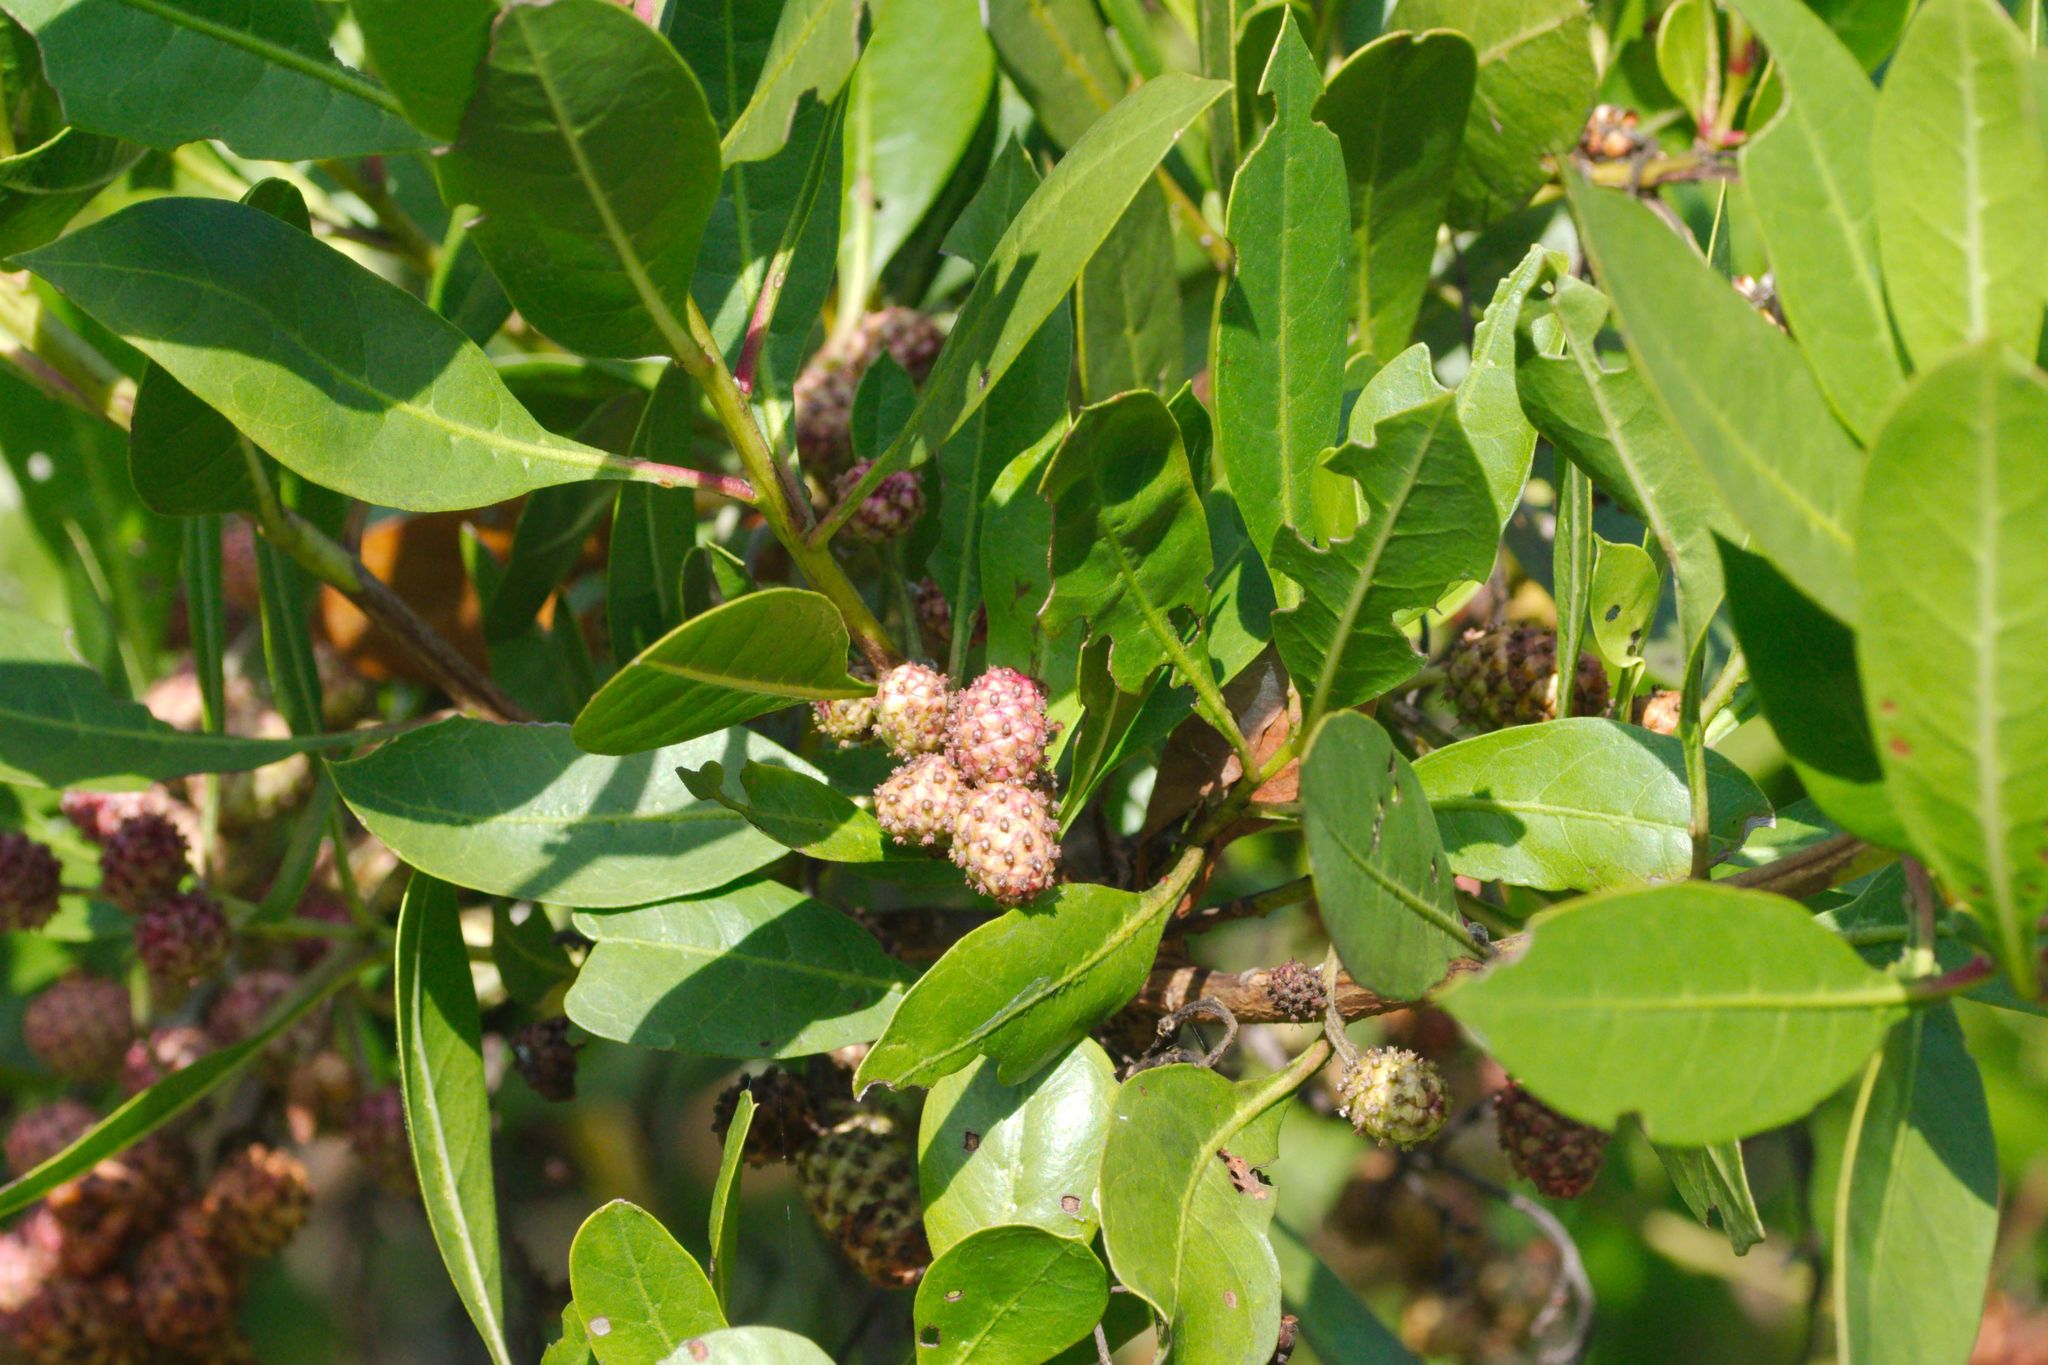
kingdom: Plantae
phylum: Tracheophyta
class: Magnoliopsida
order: Myrtales
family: Combretaceae
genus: Conocarpus
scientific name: Conocarpus erectus
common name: Button mangrove
